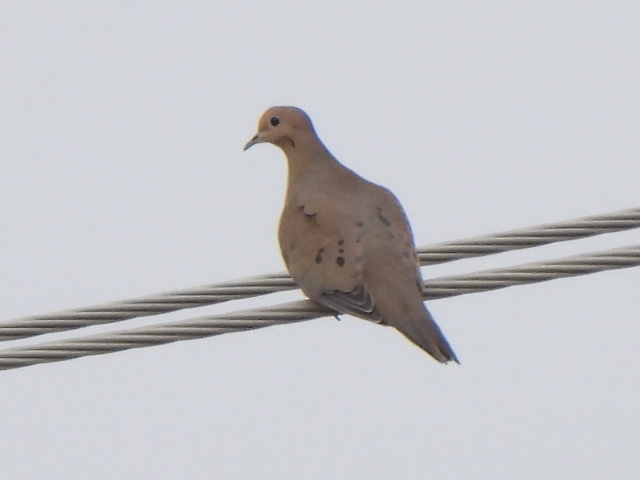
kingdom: Animalia
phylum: Chordata
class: Aves
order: Columbiformes
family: Columbidae
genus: Zenaida
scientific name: Zenaida macroura
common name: Mourning dove
